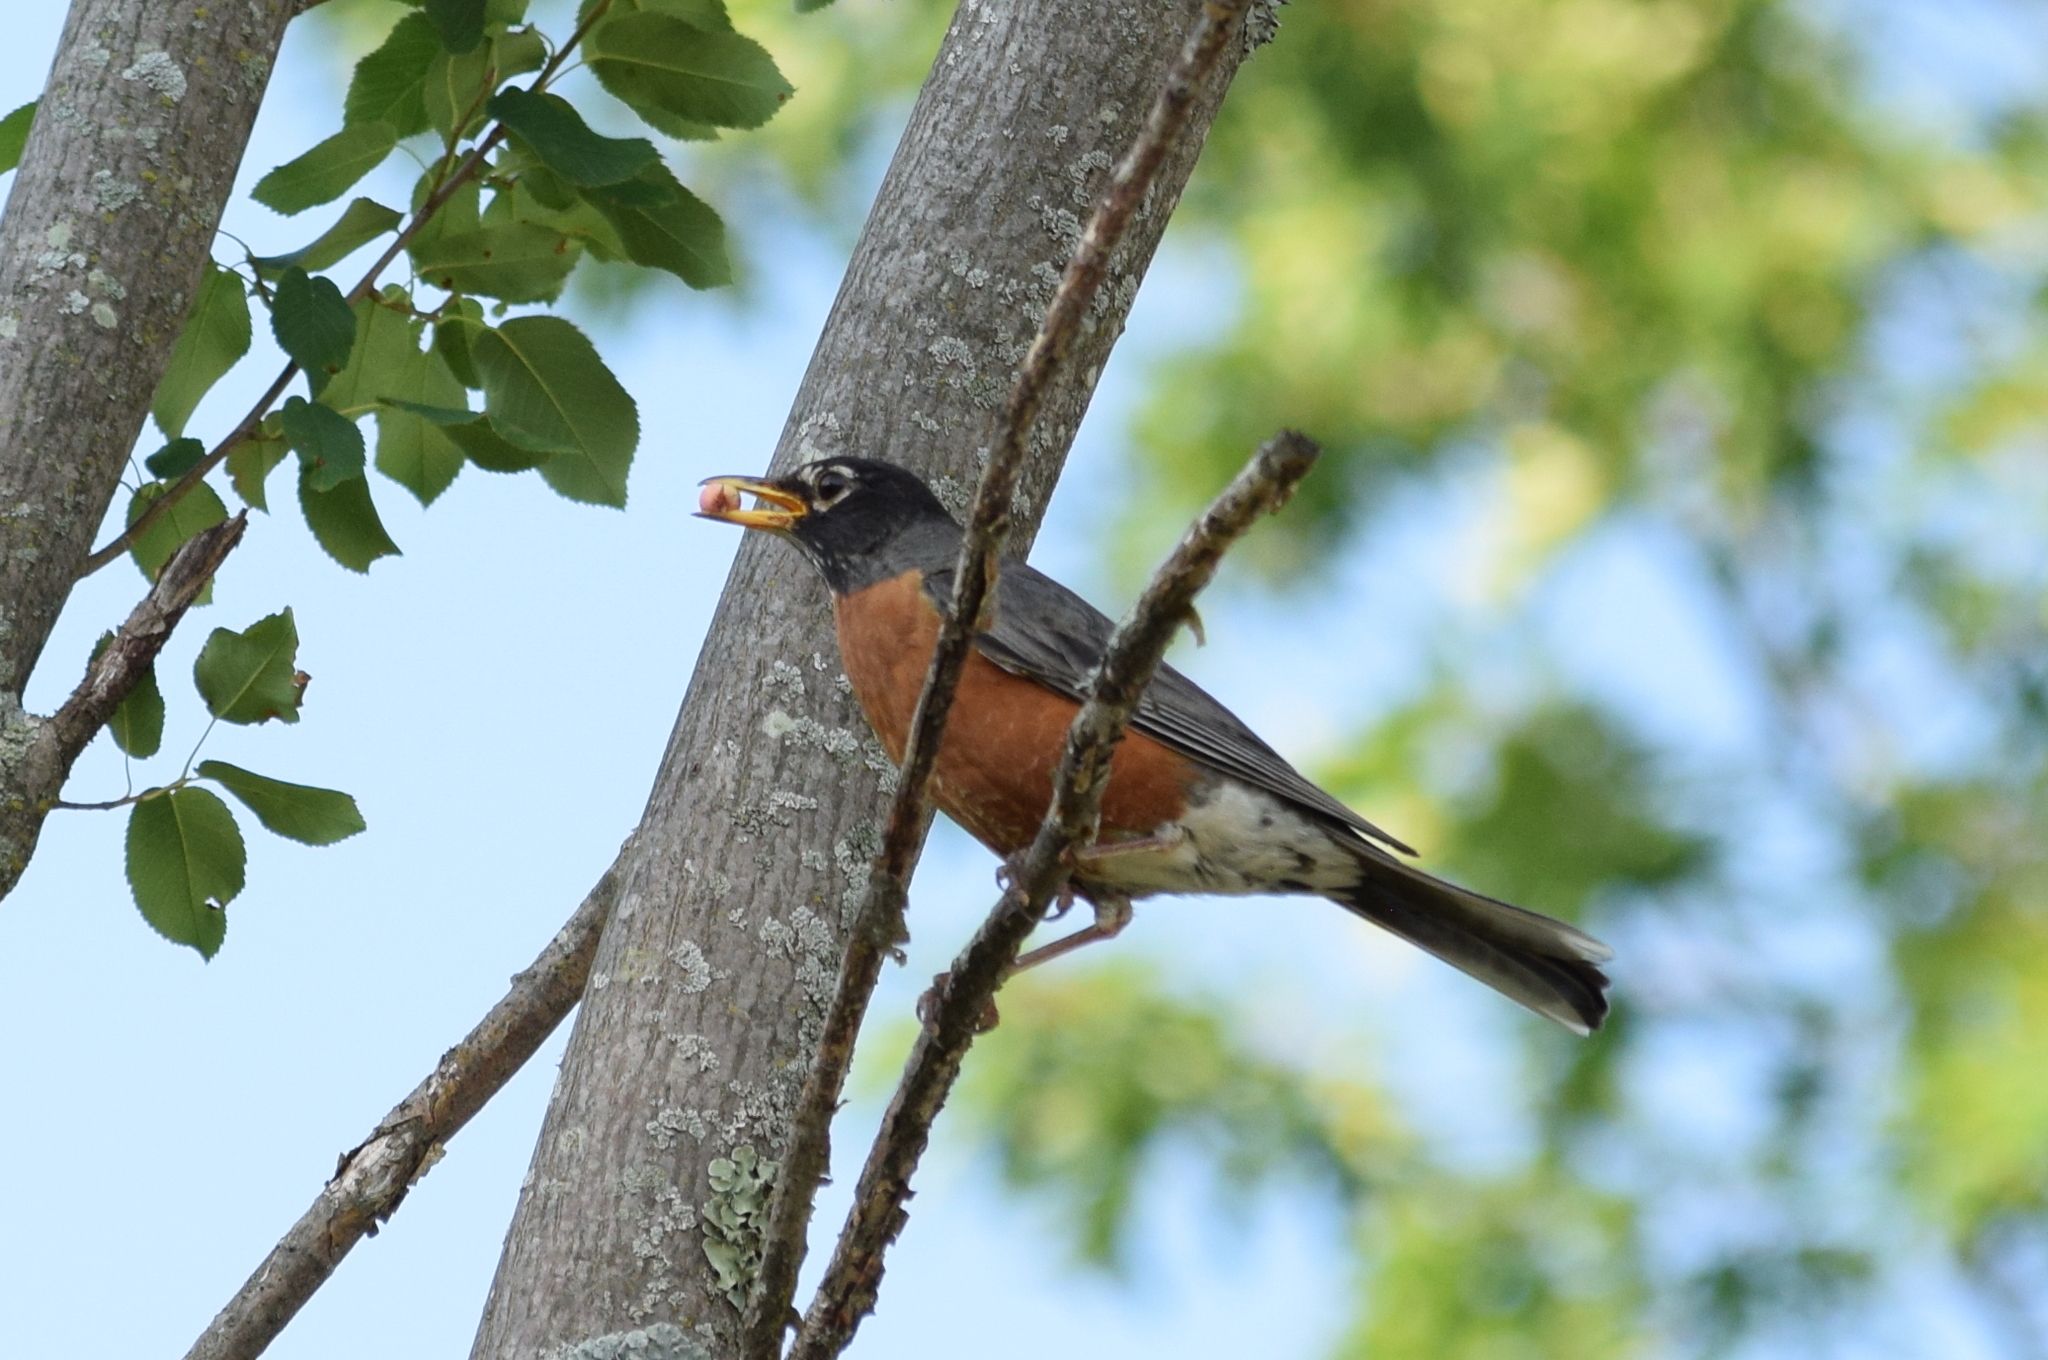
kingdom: Animalia
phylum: Chordata
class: Aves
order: Passeriformes
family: Turdidae
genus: Turdus
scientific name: Turdus migratorius
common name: American robin
